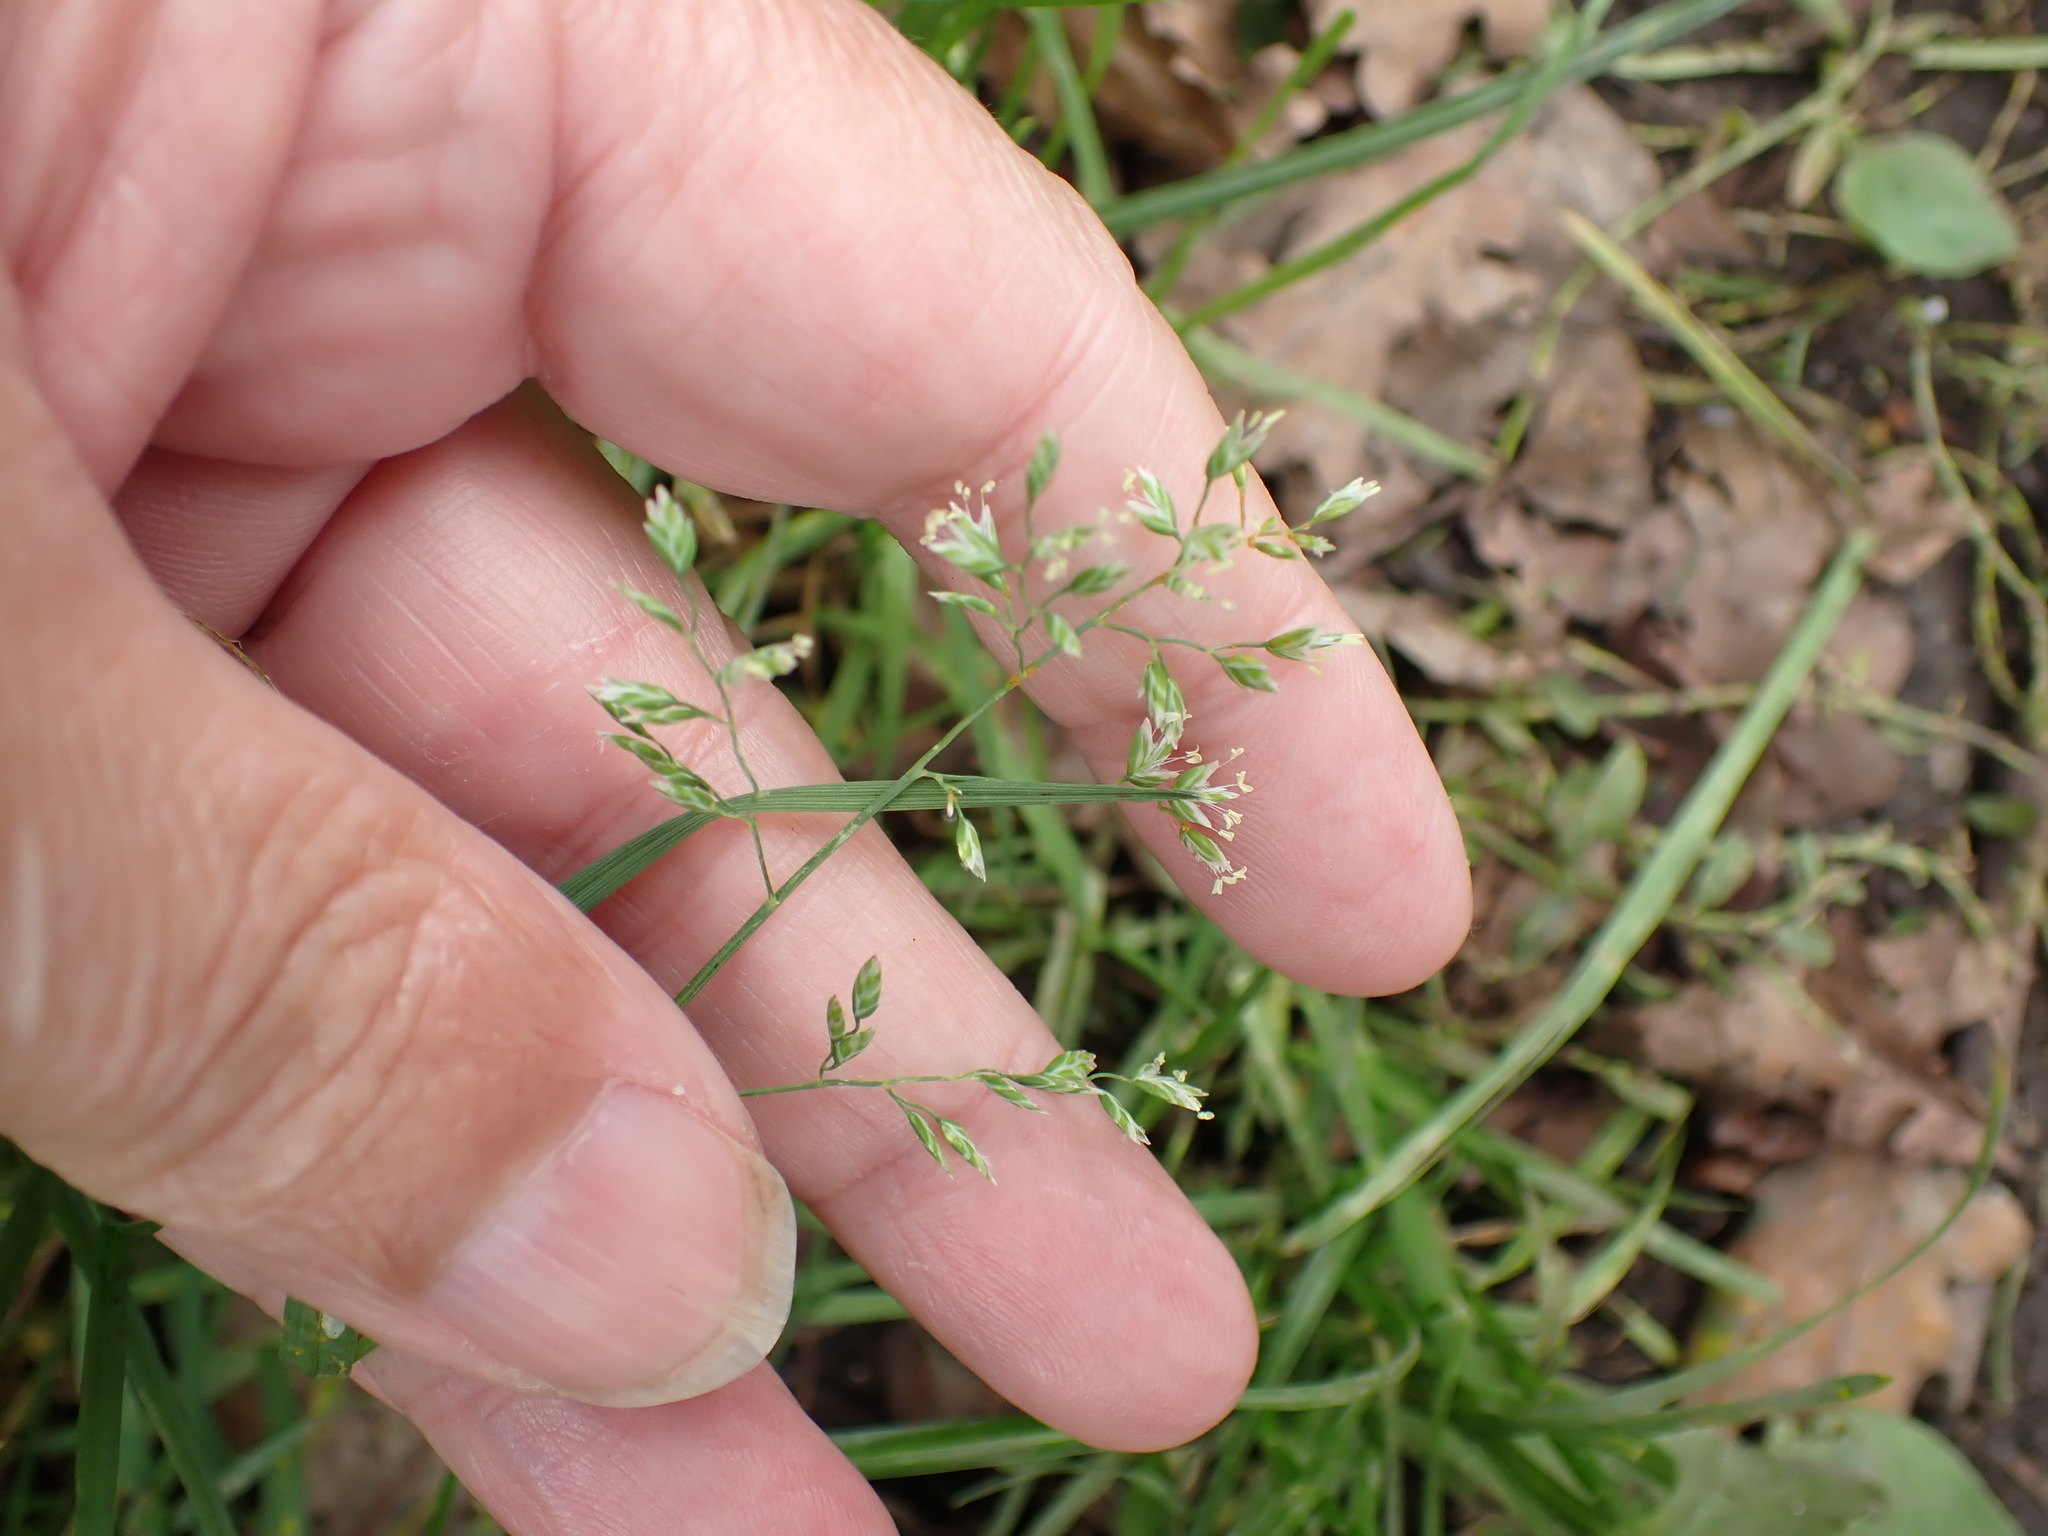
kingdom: Plantae
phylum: Tracheophyta
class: Liliopsida
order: Poales
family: Poaceae
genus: Poa
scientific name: Poa annua
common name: Annual bluegrass
